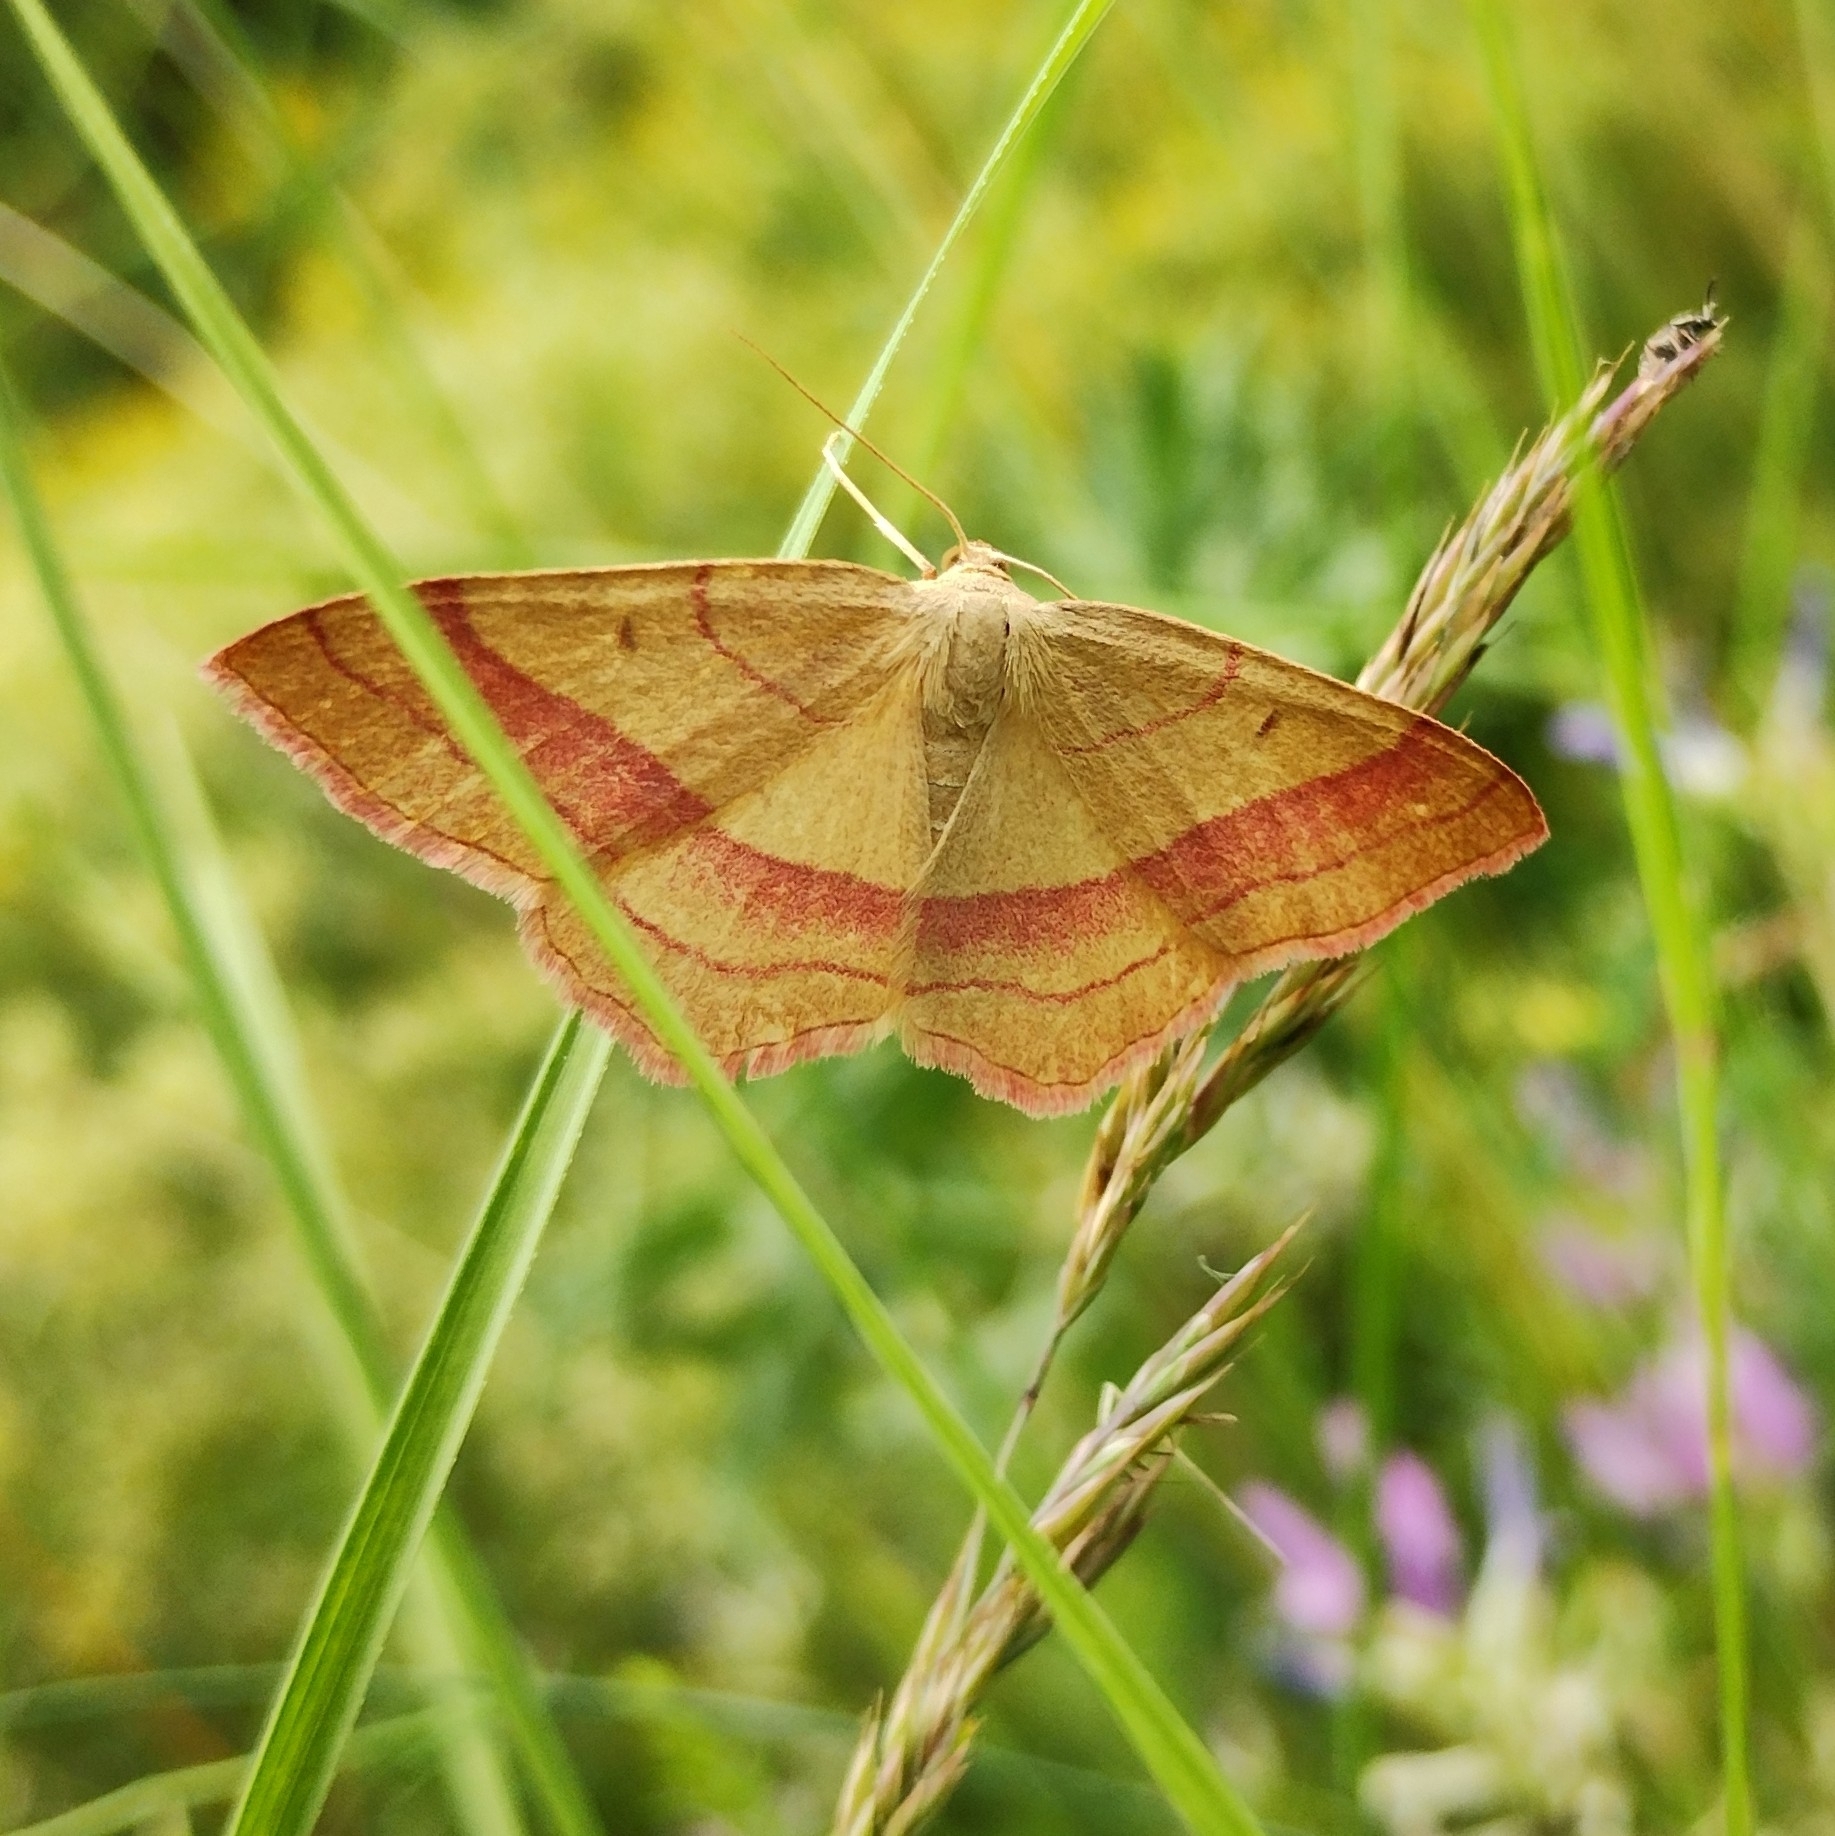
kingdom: Animalia
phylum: Arthropoda
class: Insecta
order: Lepidoptera
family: Geometridae
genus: Rhodostrophia
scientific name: Rhodostrophia vibicaria
